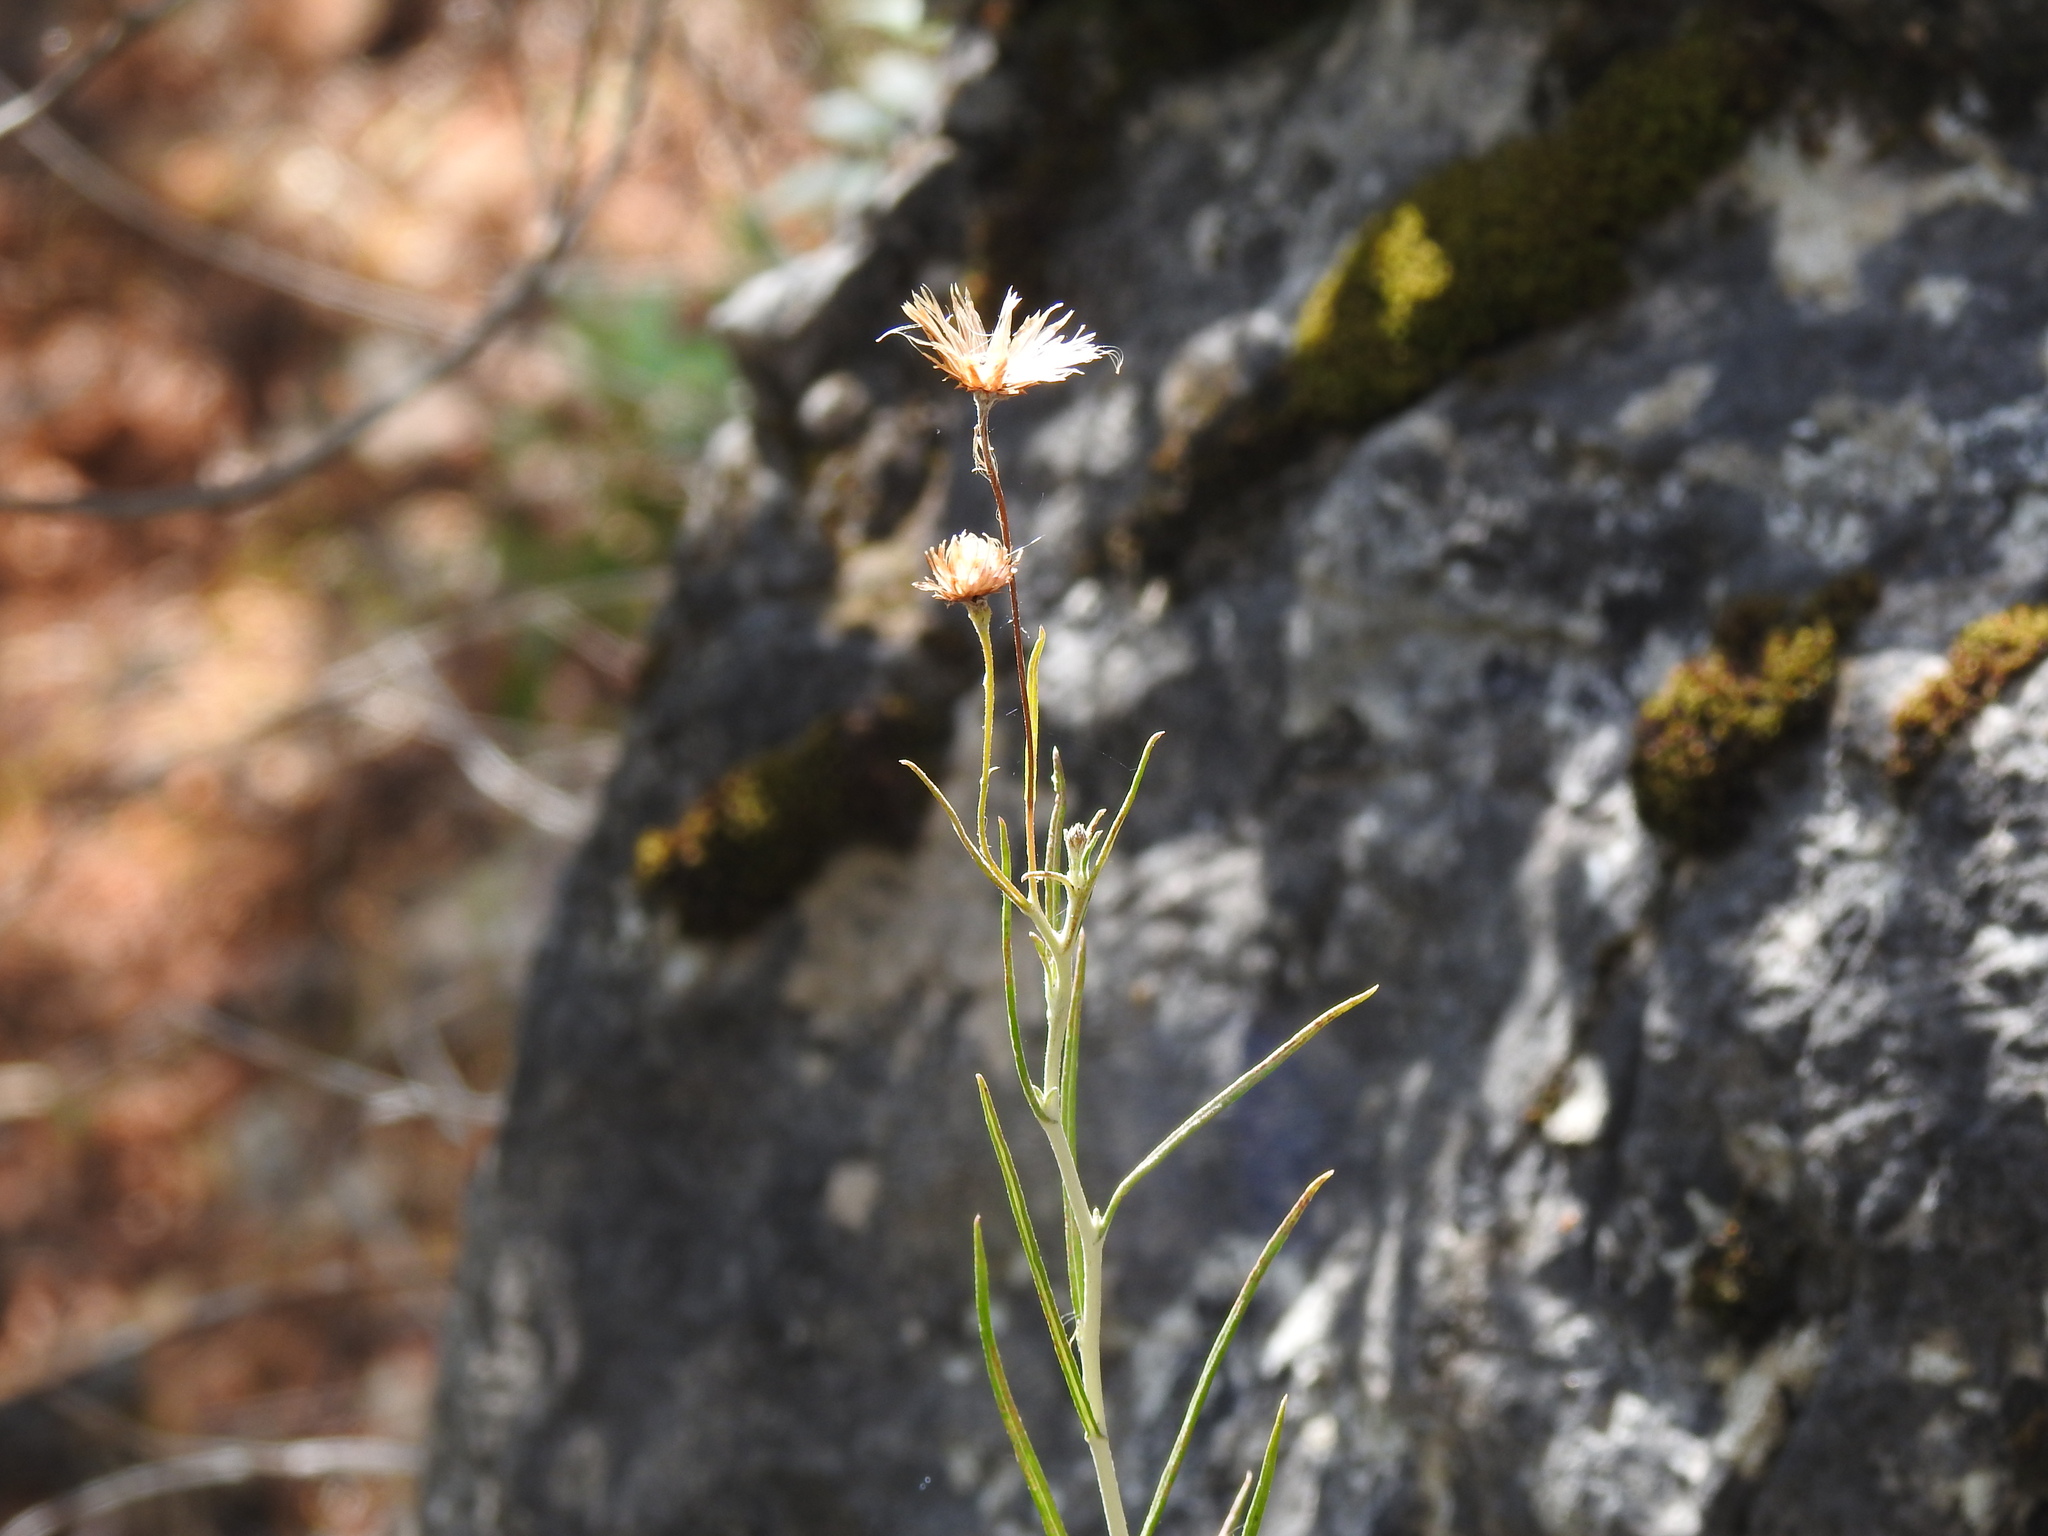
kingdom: Plantae
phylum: Tracheophyta
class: Magnoliopsida
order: Asterales
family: Asteraceae
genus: Phagnalon
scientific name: Phagnalon saxatile
